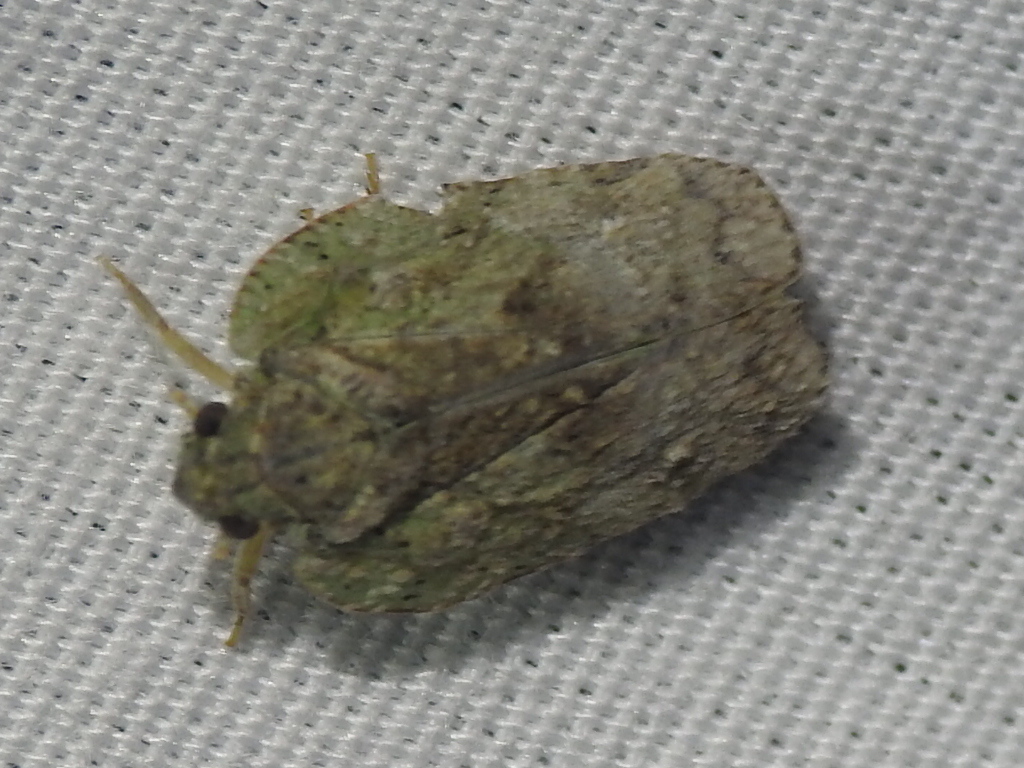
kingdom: Animalia
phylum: Arthropoda
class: Insecta
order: Hemiptera
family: Flatidae
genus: Flatoidinus
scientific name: Flatoidinus punctatus
